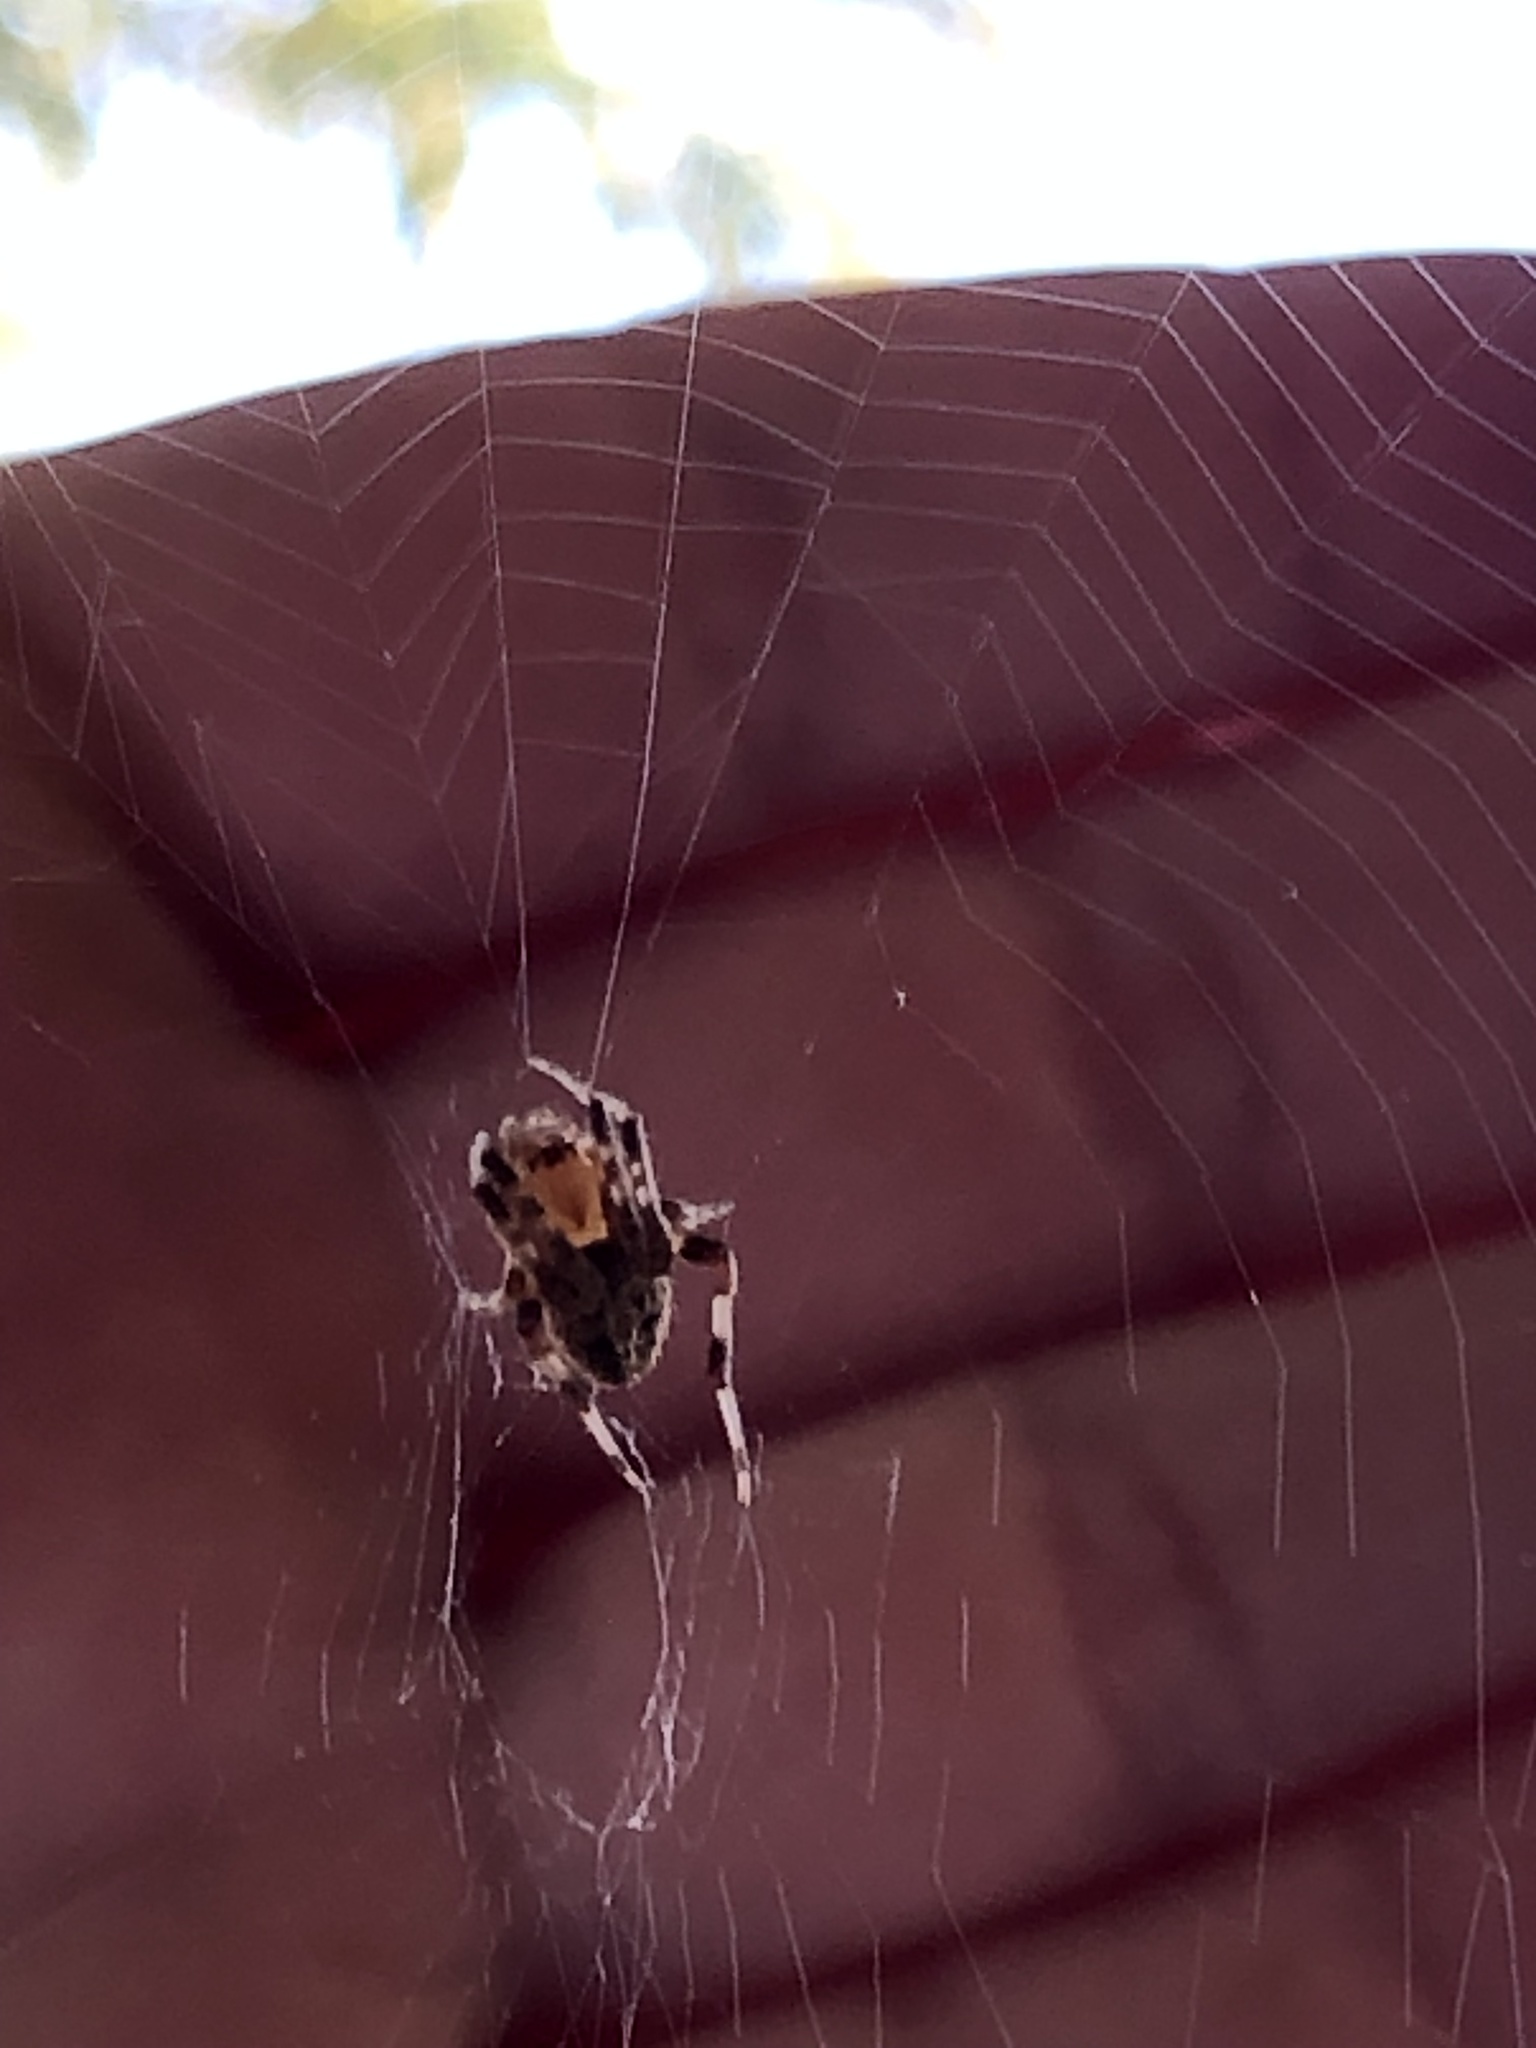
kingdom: Animalia
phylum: Arthropoda
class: Arachnida
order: Araneae
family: Araneidae
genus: Neoscona
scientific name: Neoscona crucifera
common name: Spotted orbweaver
